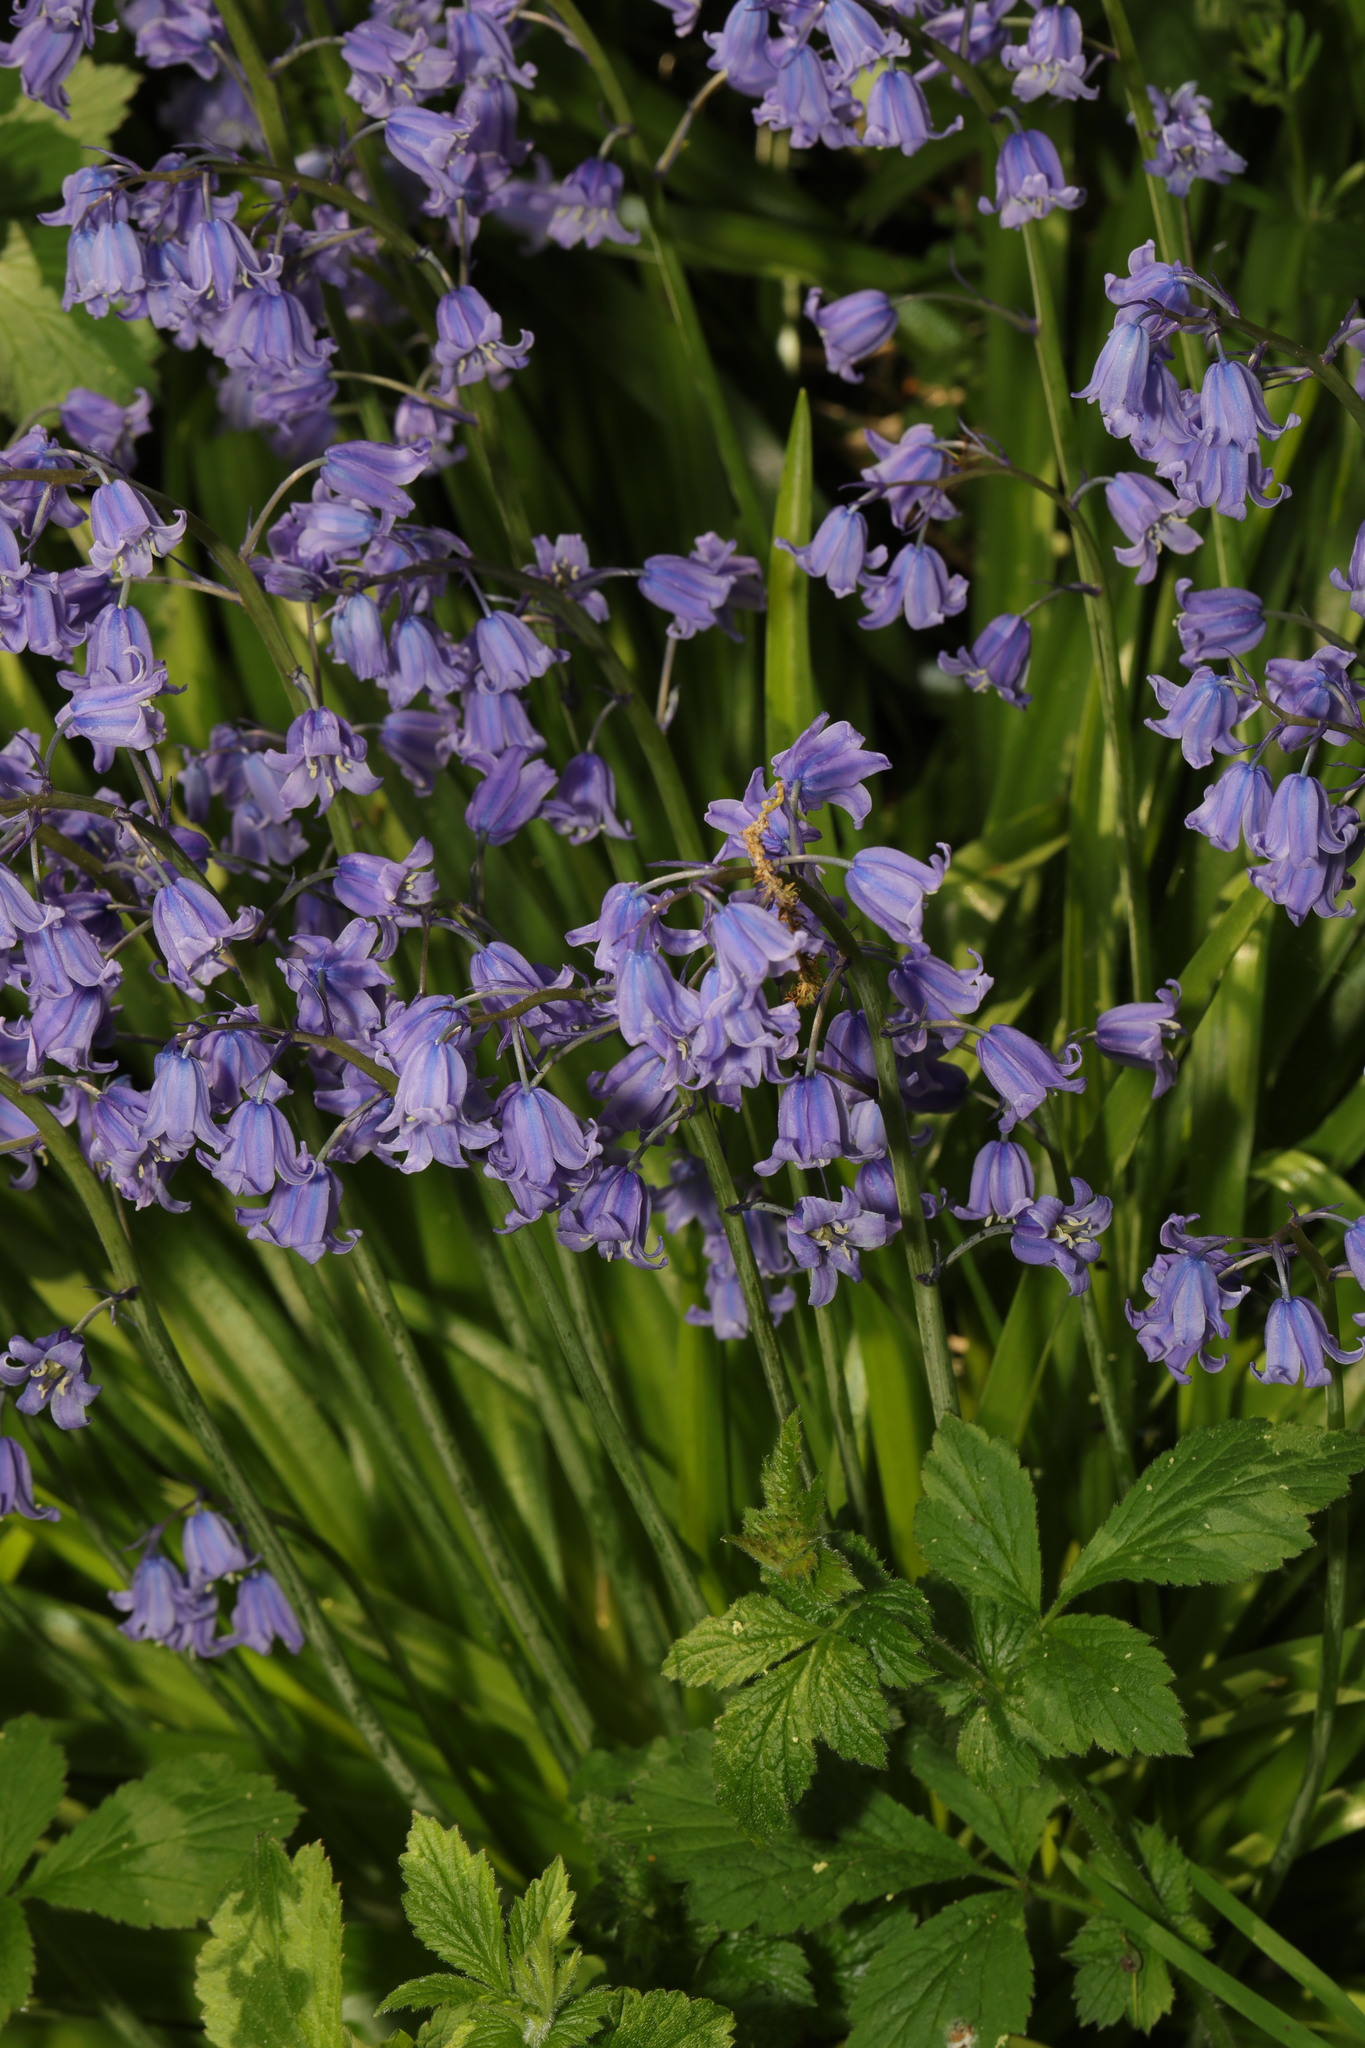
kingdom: Plantae
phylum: Tracheophyta
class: Liliopsida
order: Asparagales
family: Asparagaceae
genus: Hyacinthoides
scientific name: Hyacinthoides hispanica
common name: Spanish bluebell
